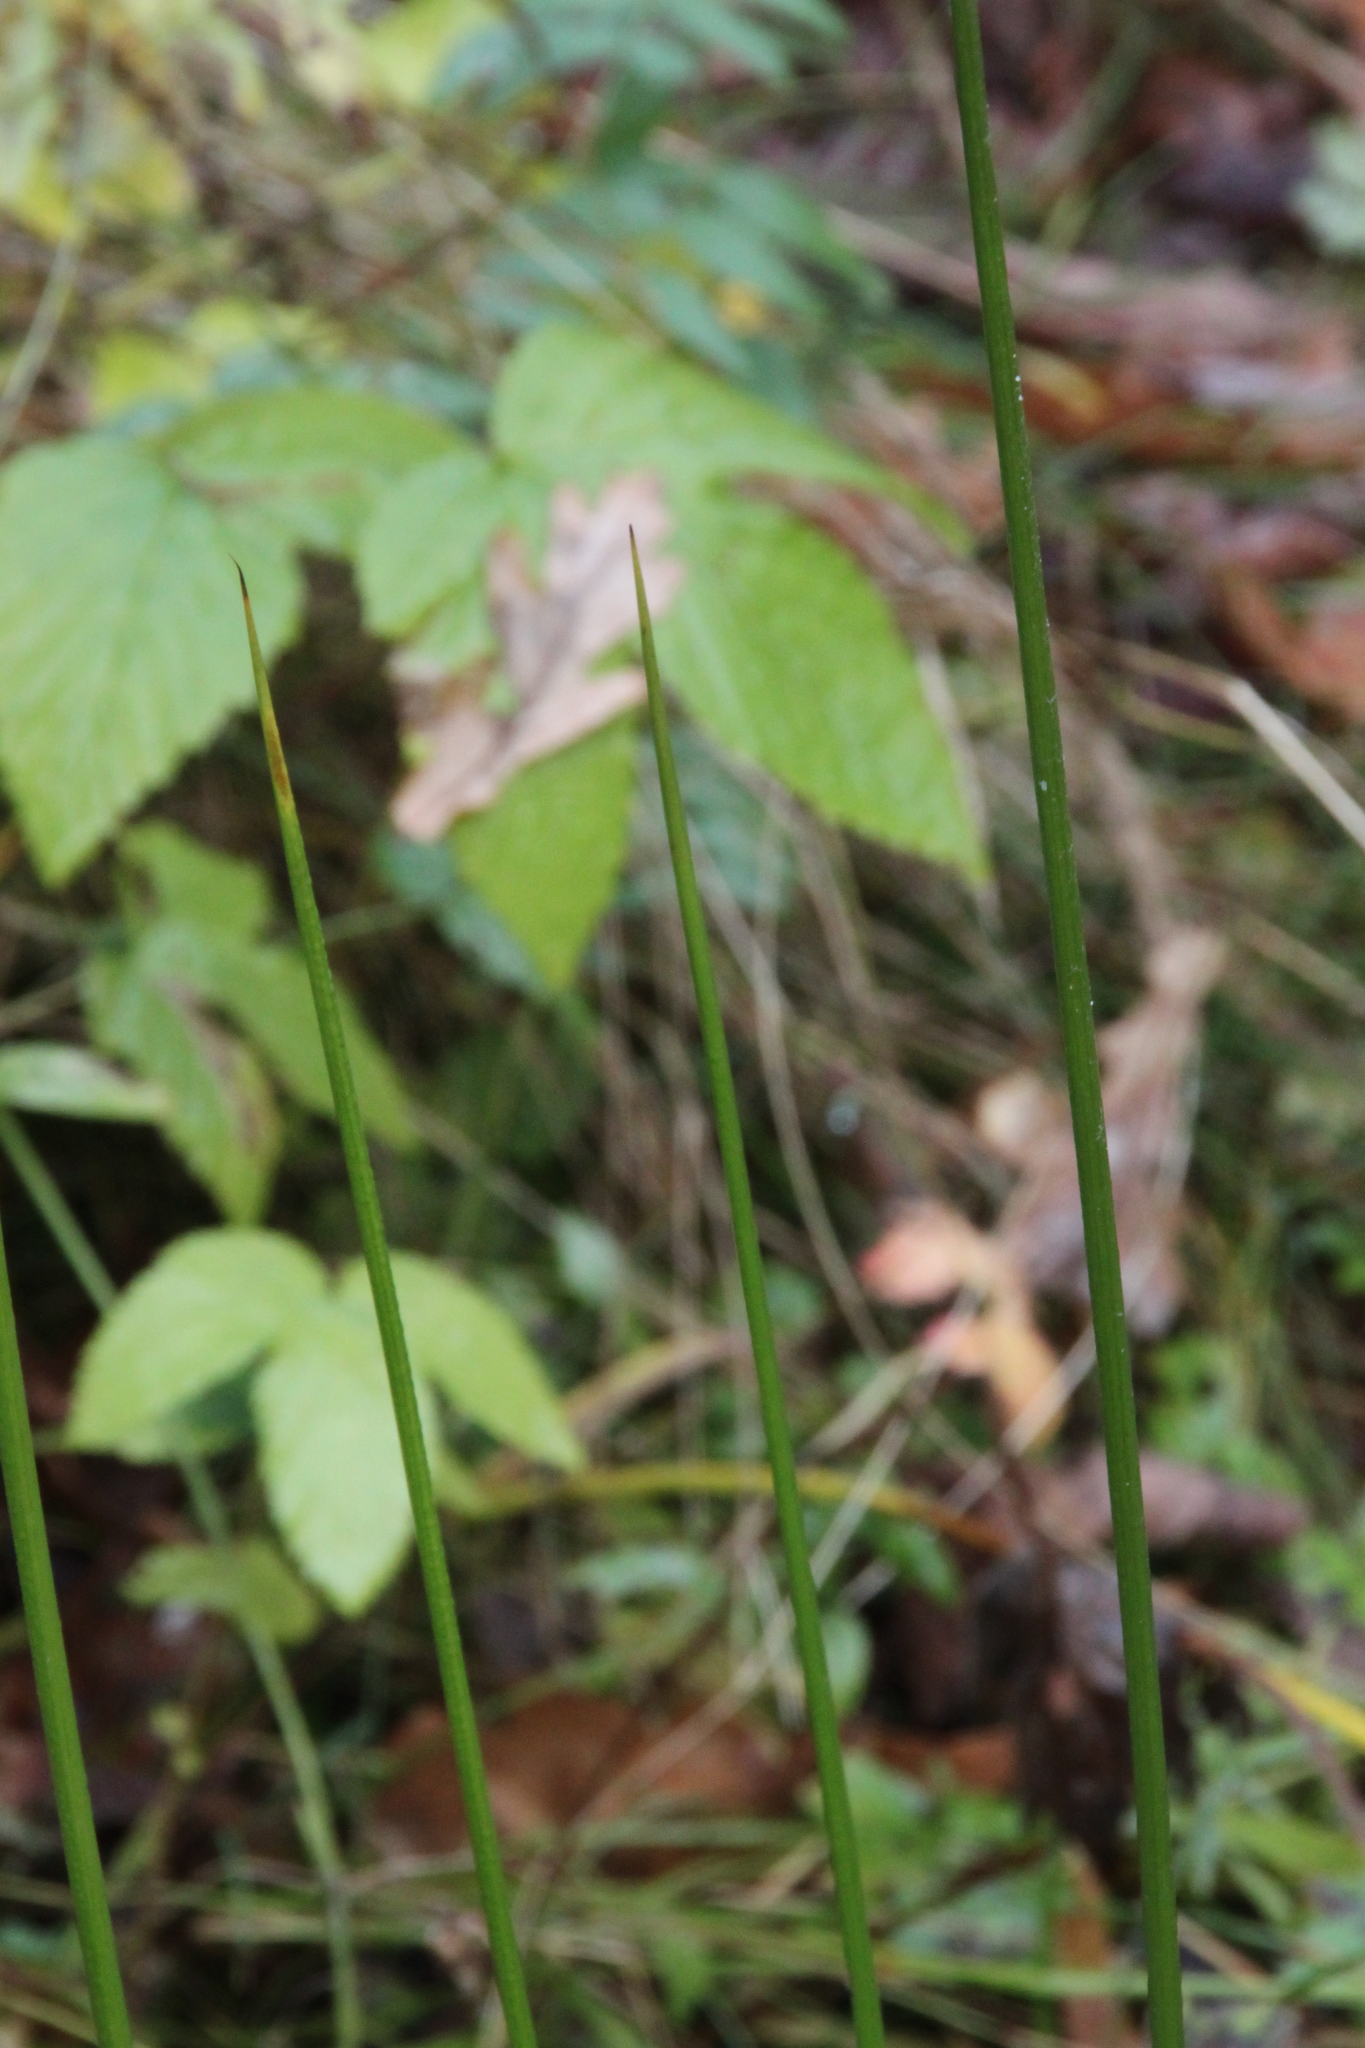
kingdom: Plantae
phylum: Tracheophyta
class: Liliopsida
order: Poales
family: Juncaceae
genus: Juncus
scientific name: Juncus effusus
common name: Soft rush
